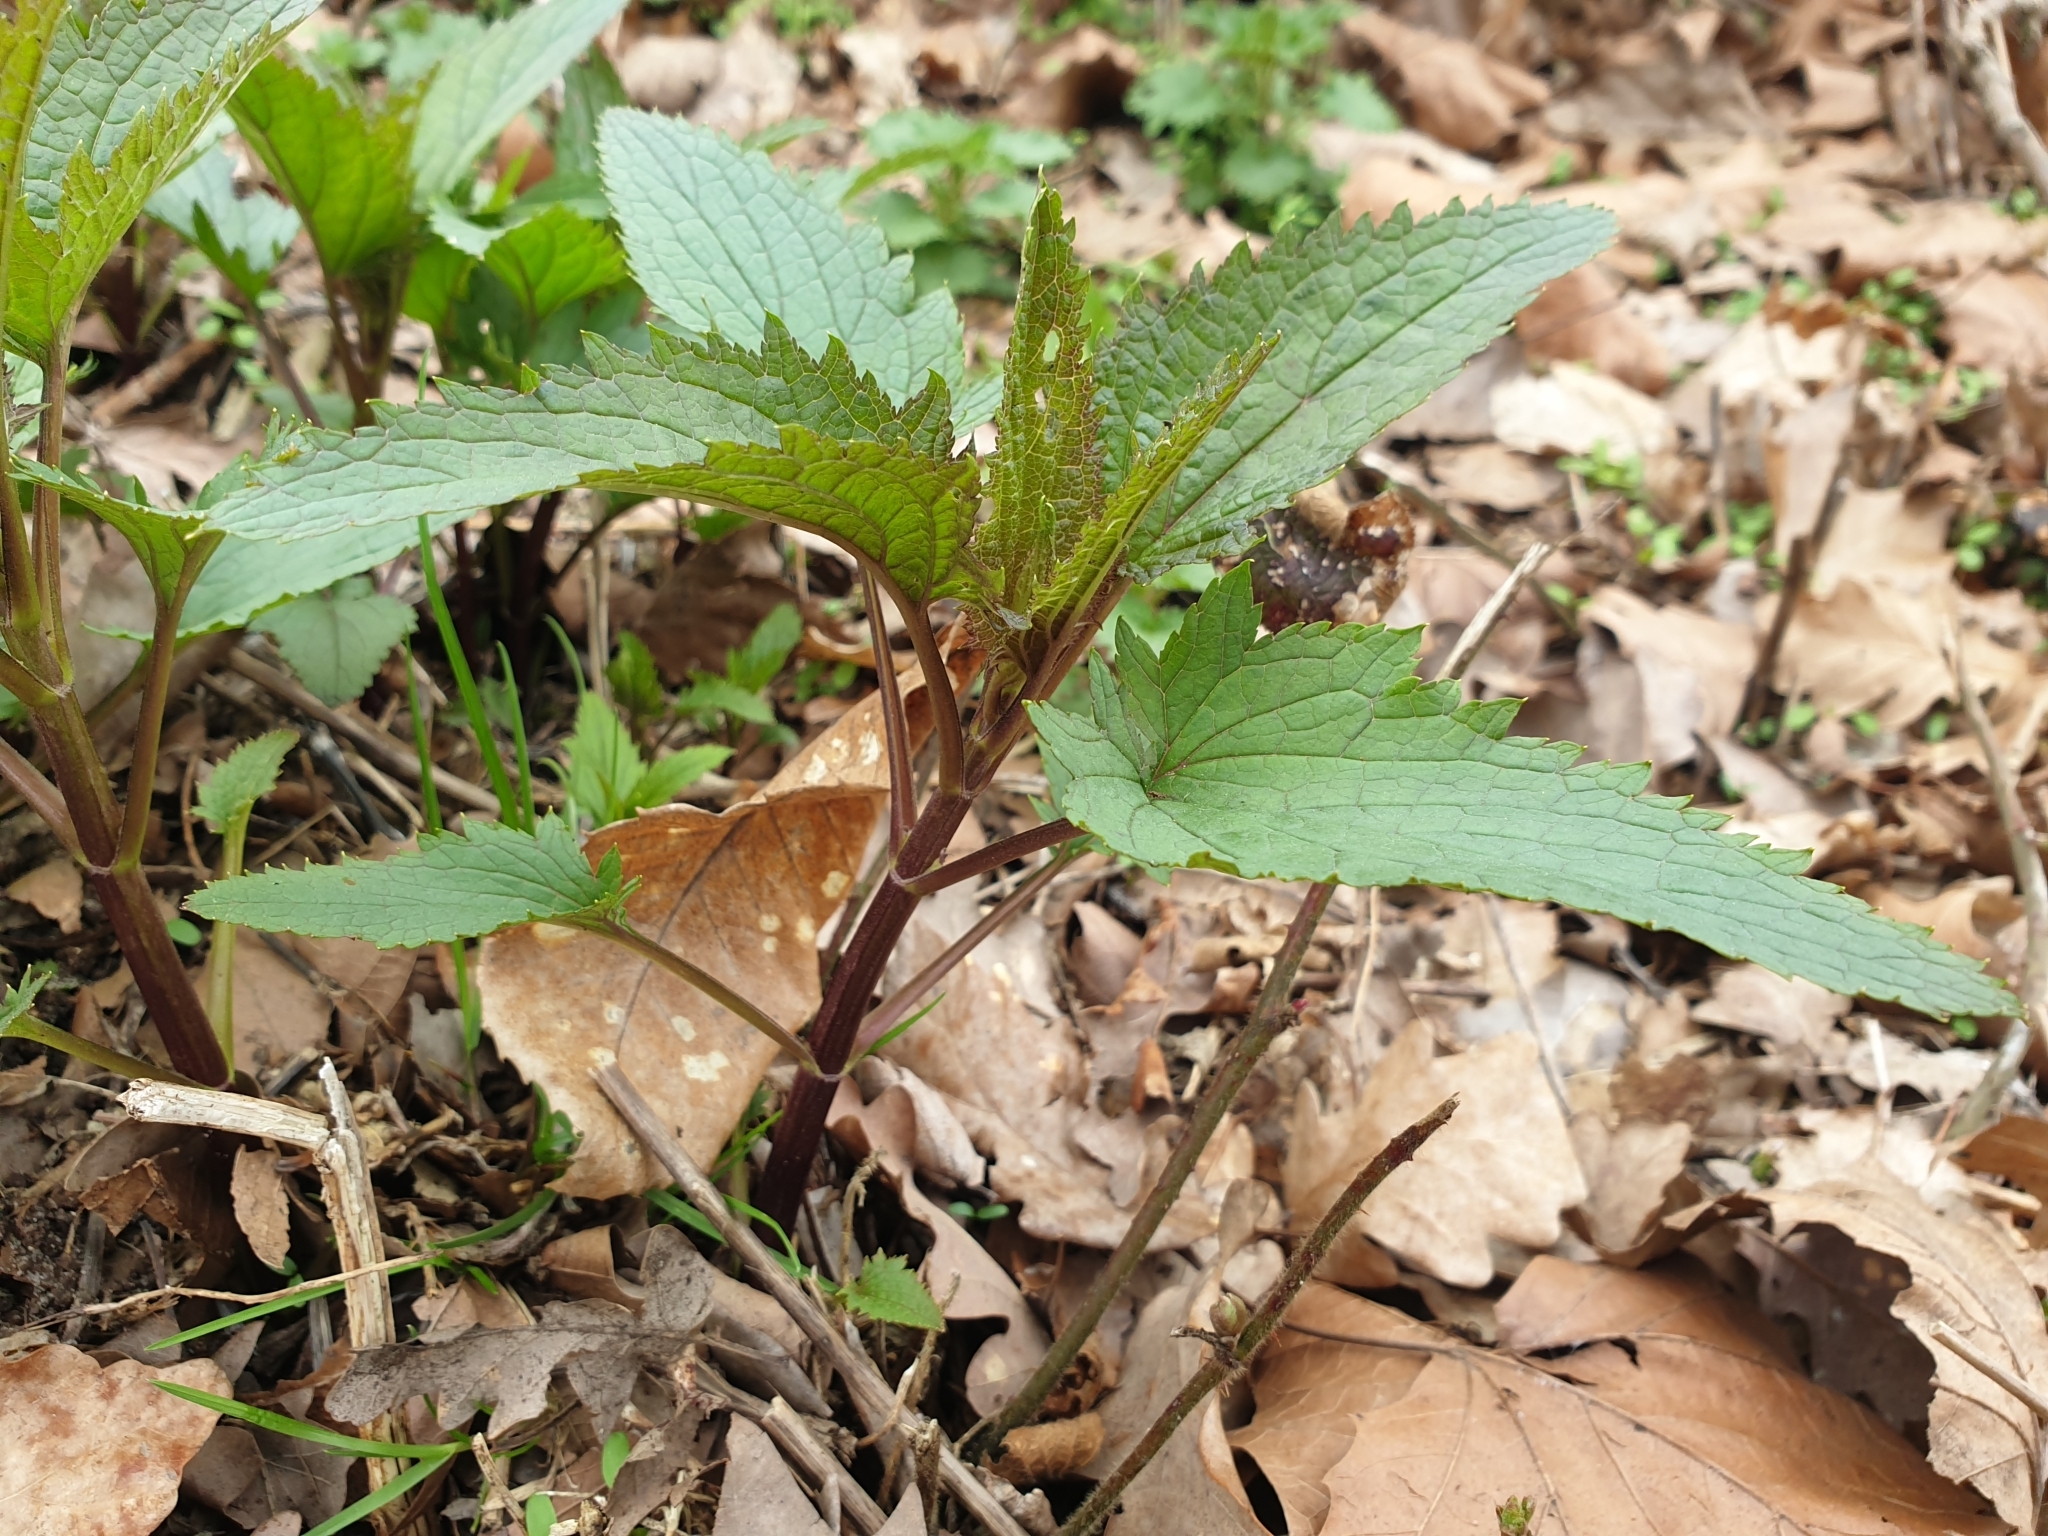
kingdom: Plantae
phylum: Tracheophyta
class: Magnoliopsida
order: Lamiales
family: Scrophulariaceae
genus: Scrophularia
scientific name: Scrophularia nodosa
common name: Common figwort
